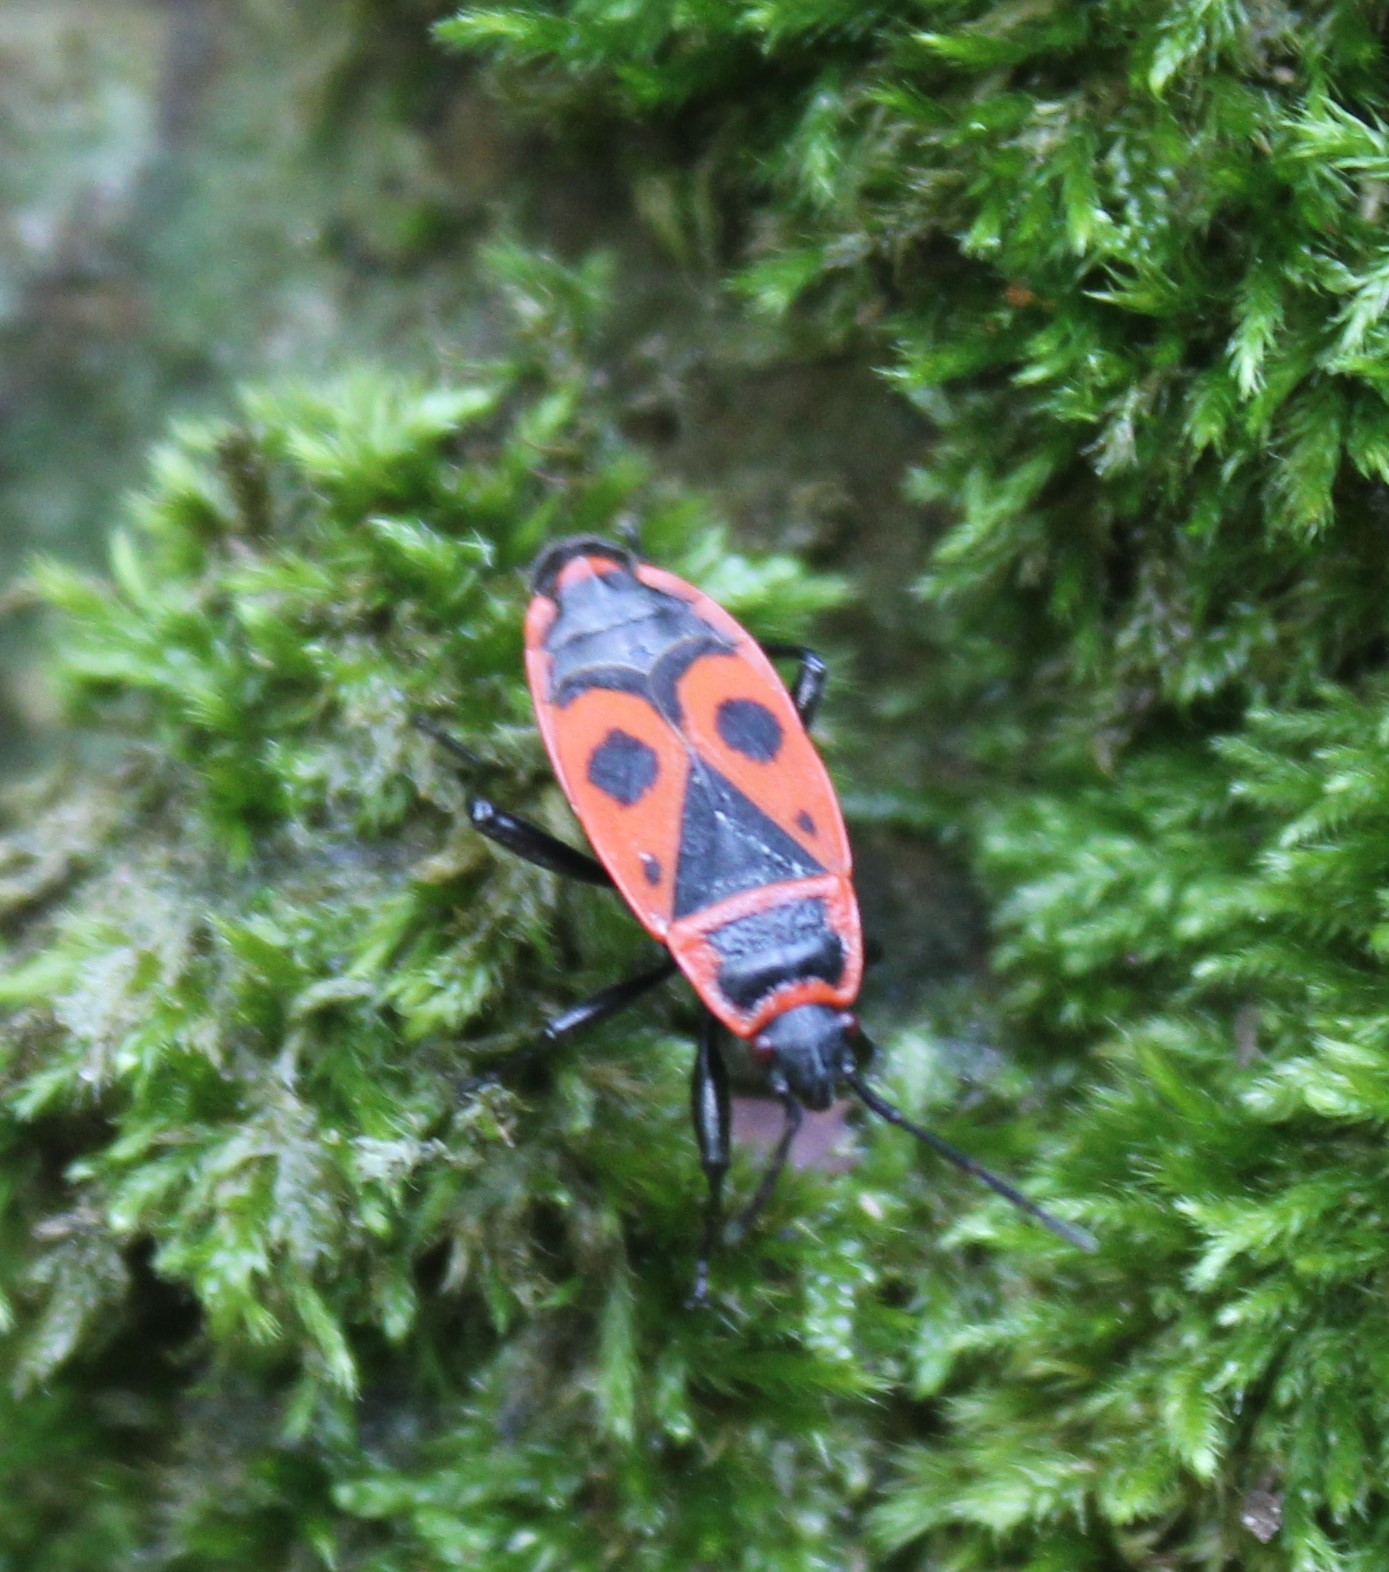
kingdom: Animalia
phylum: Arthropoda
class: Insecta
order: Hemiptera
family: Pyrrhocoridae
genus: Pyrrhocoris
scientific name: Pyrrhocoris apterus
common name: Firebug
